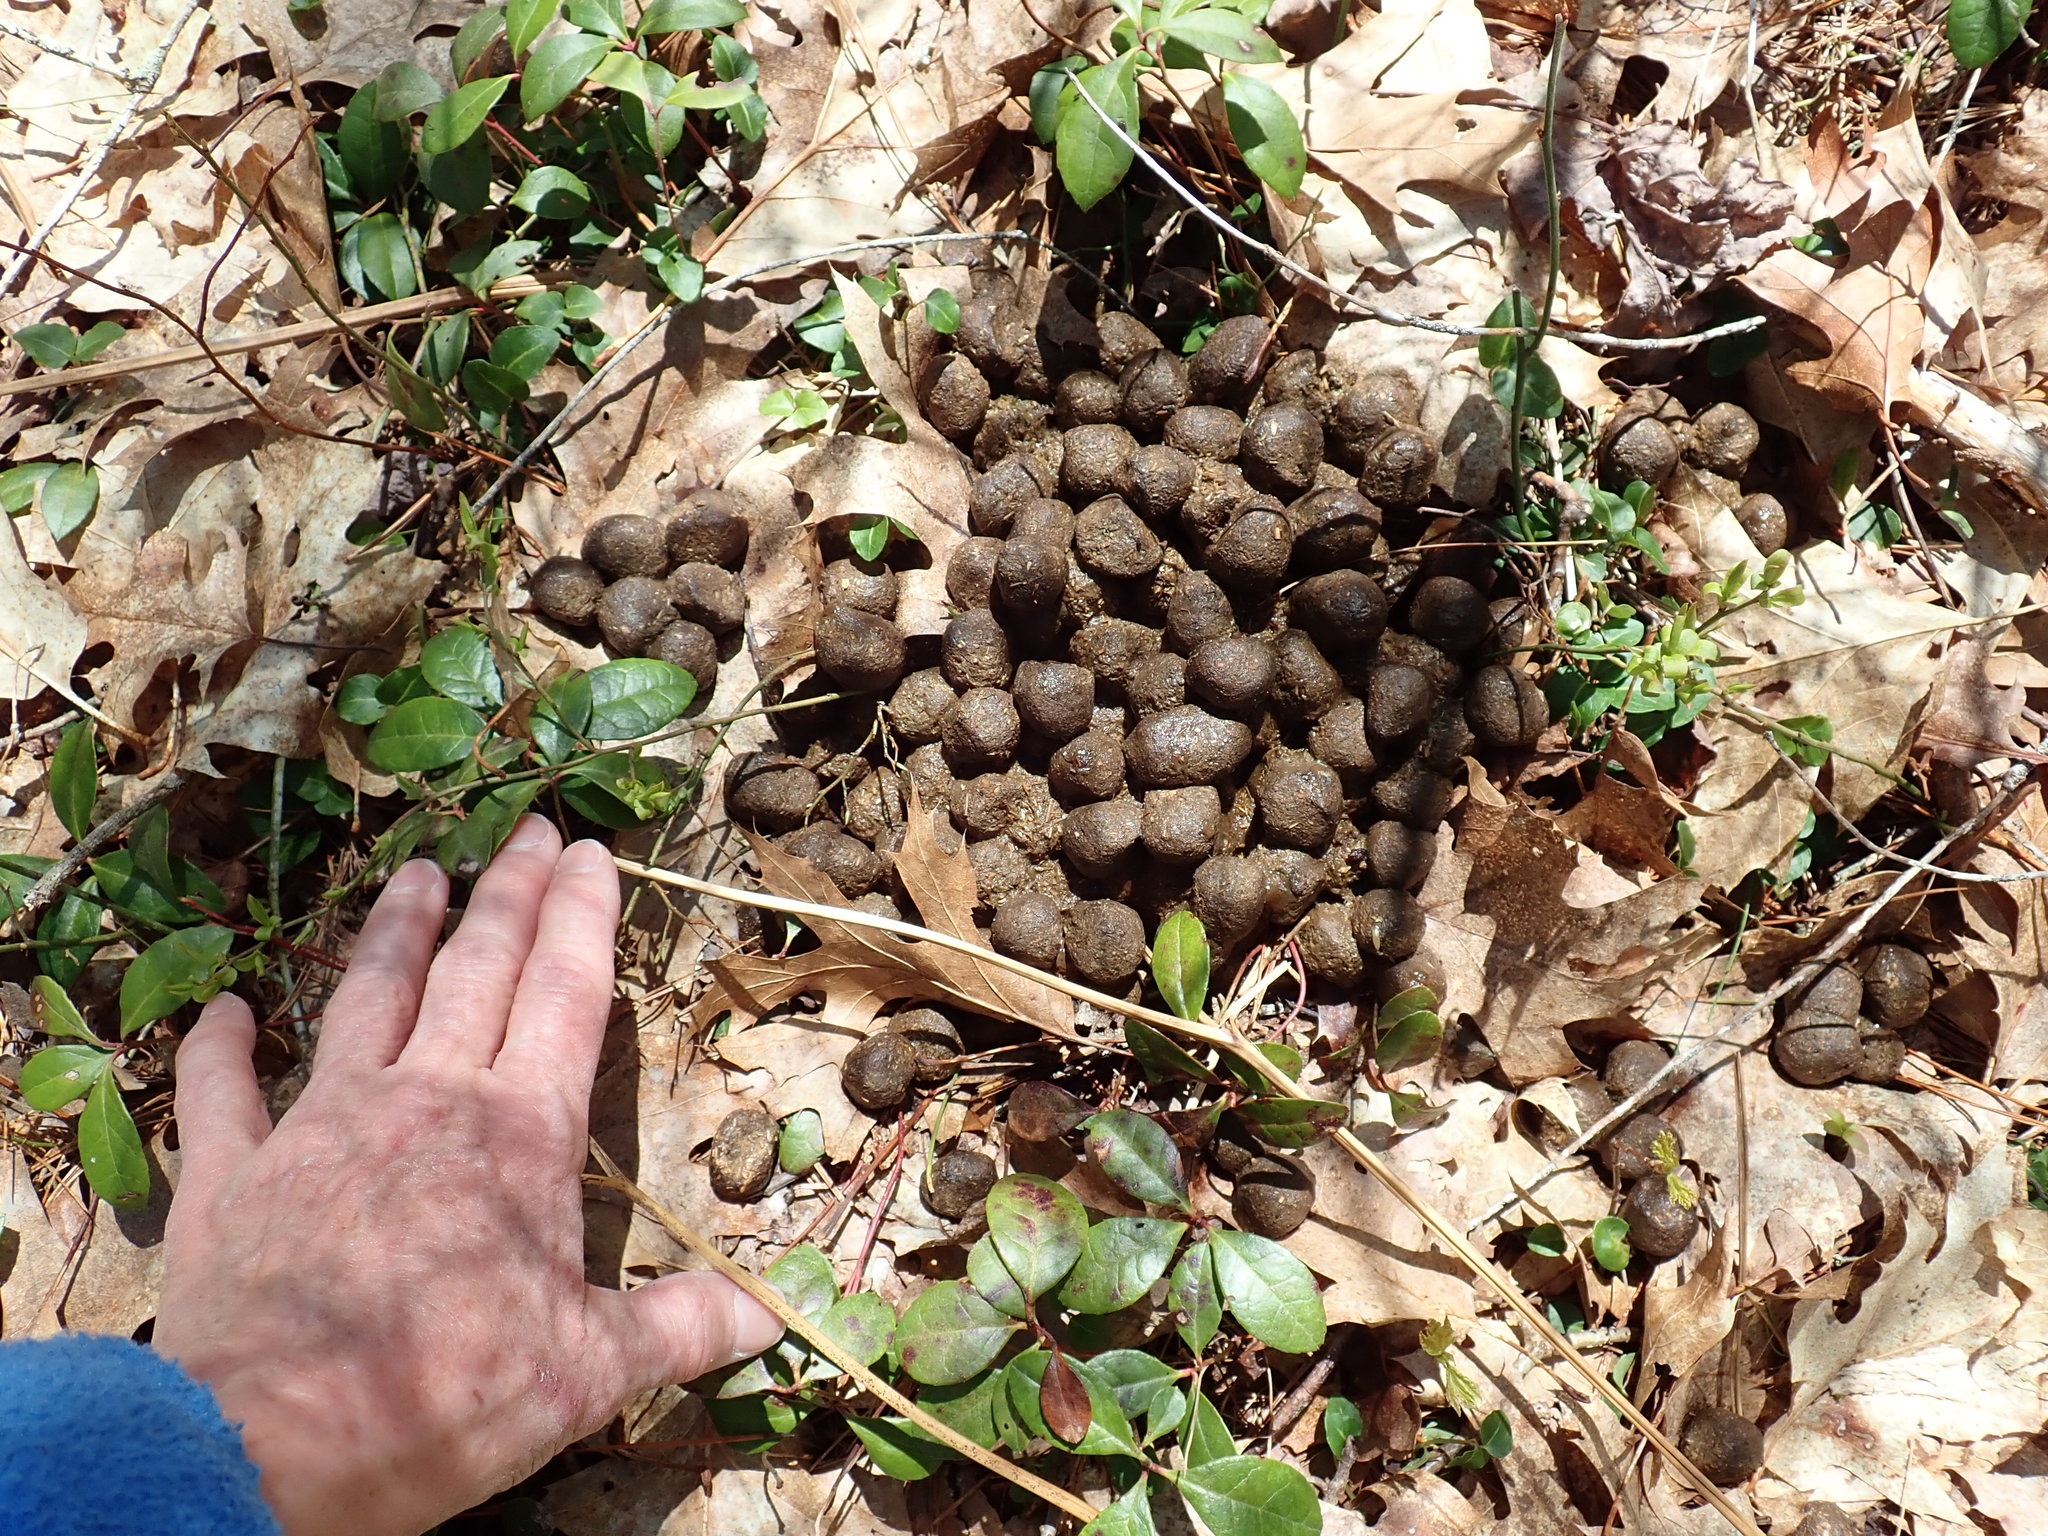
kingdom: Animalia
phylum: Chordata
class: Mammalia
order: Artiodactyla
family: Cervidae
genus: Alces
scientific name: Alces alces
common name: Moose
